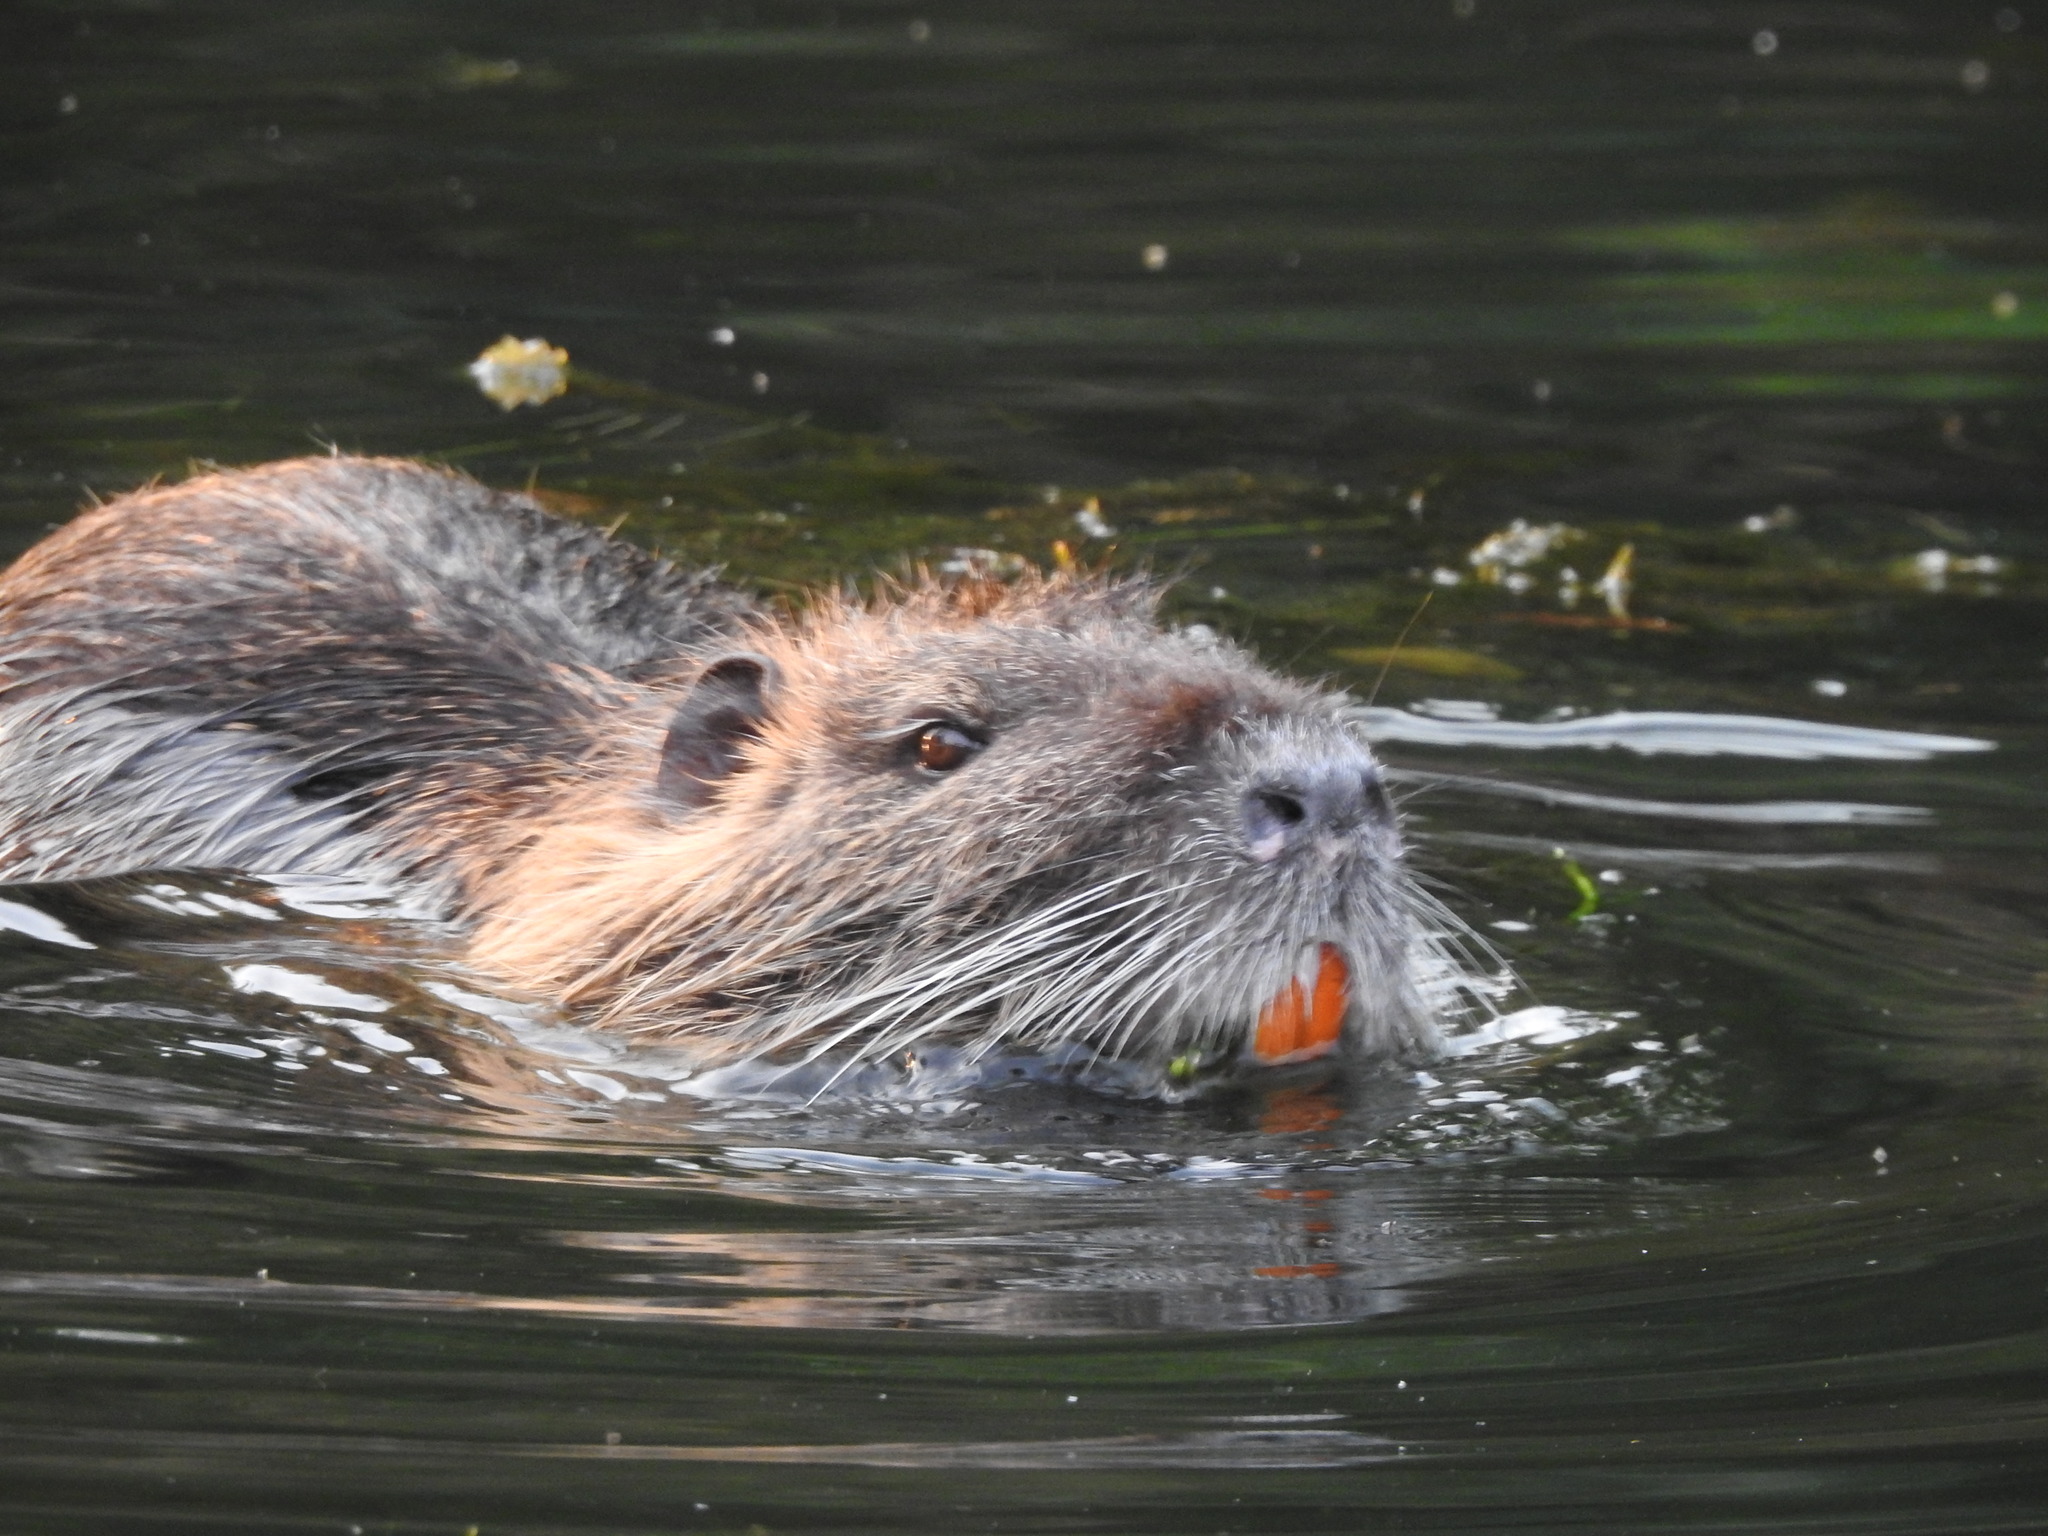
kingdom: Animalia
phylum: Chordata
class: Mammalia
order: Rodentia
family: Myocastoridae
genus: Myocastor
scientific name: Myocastor coypus
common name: Coypu
